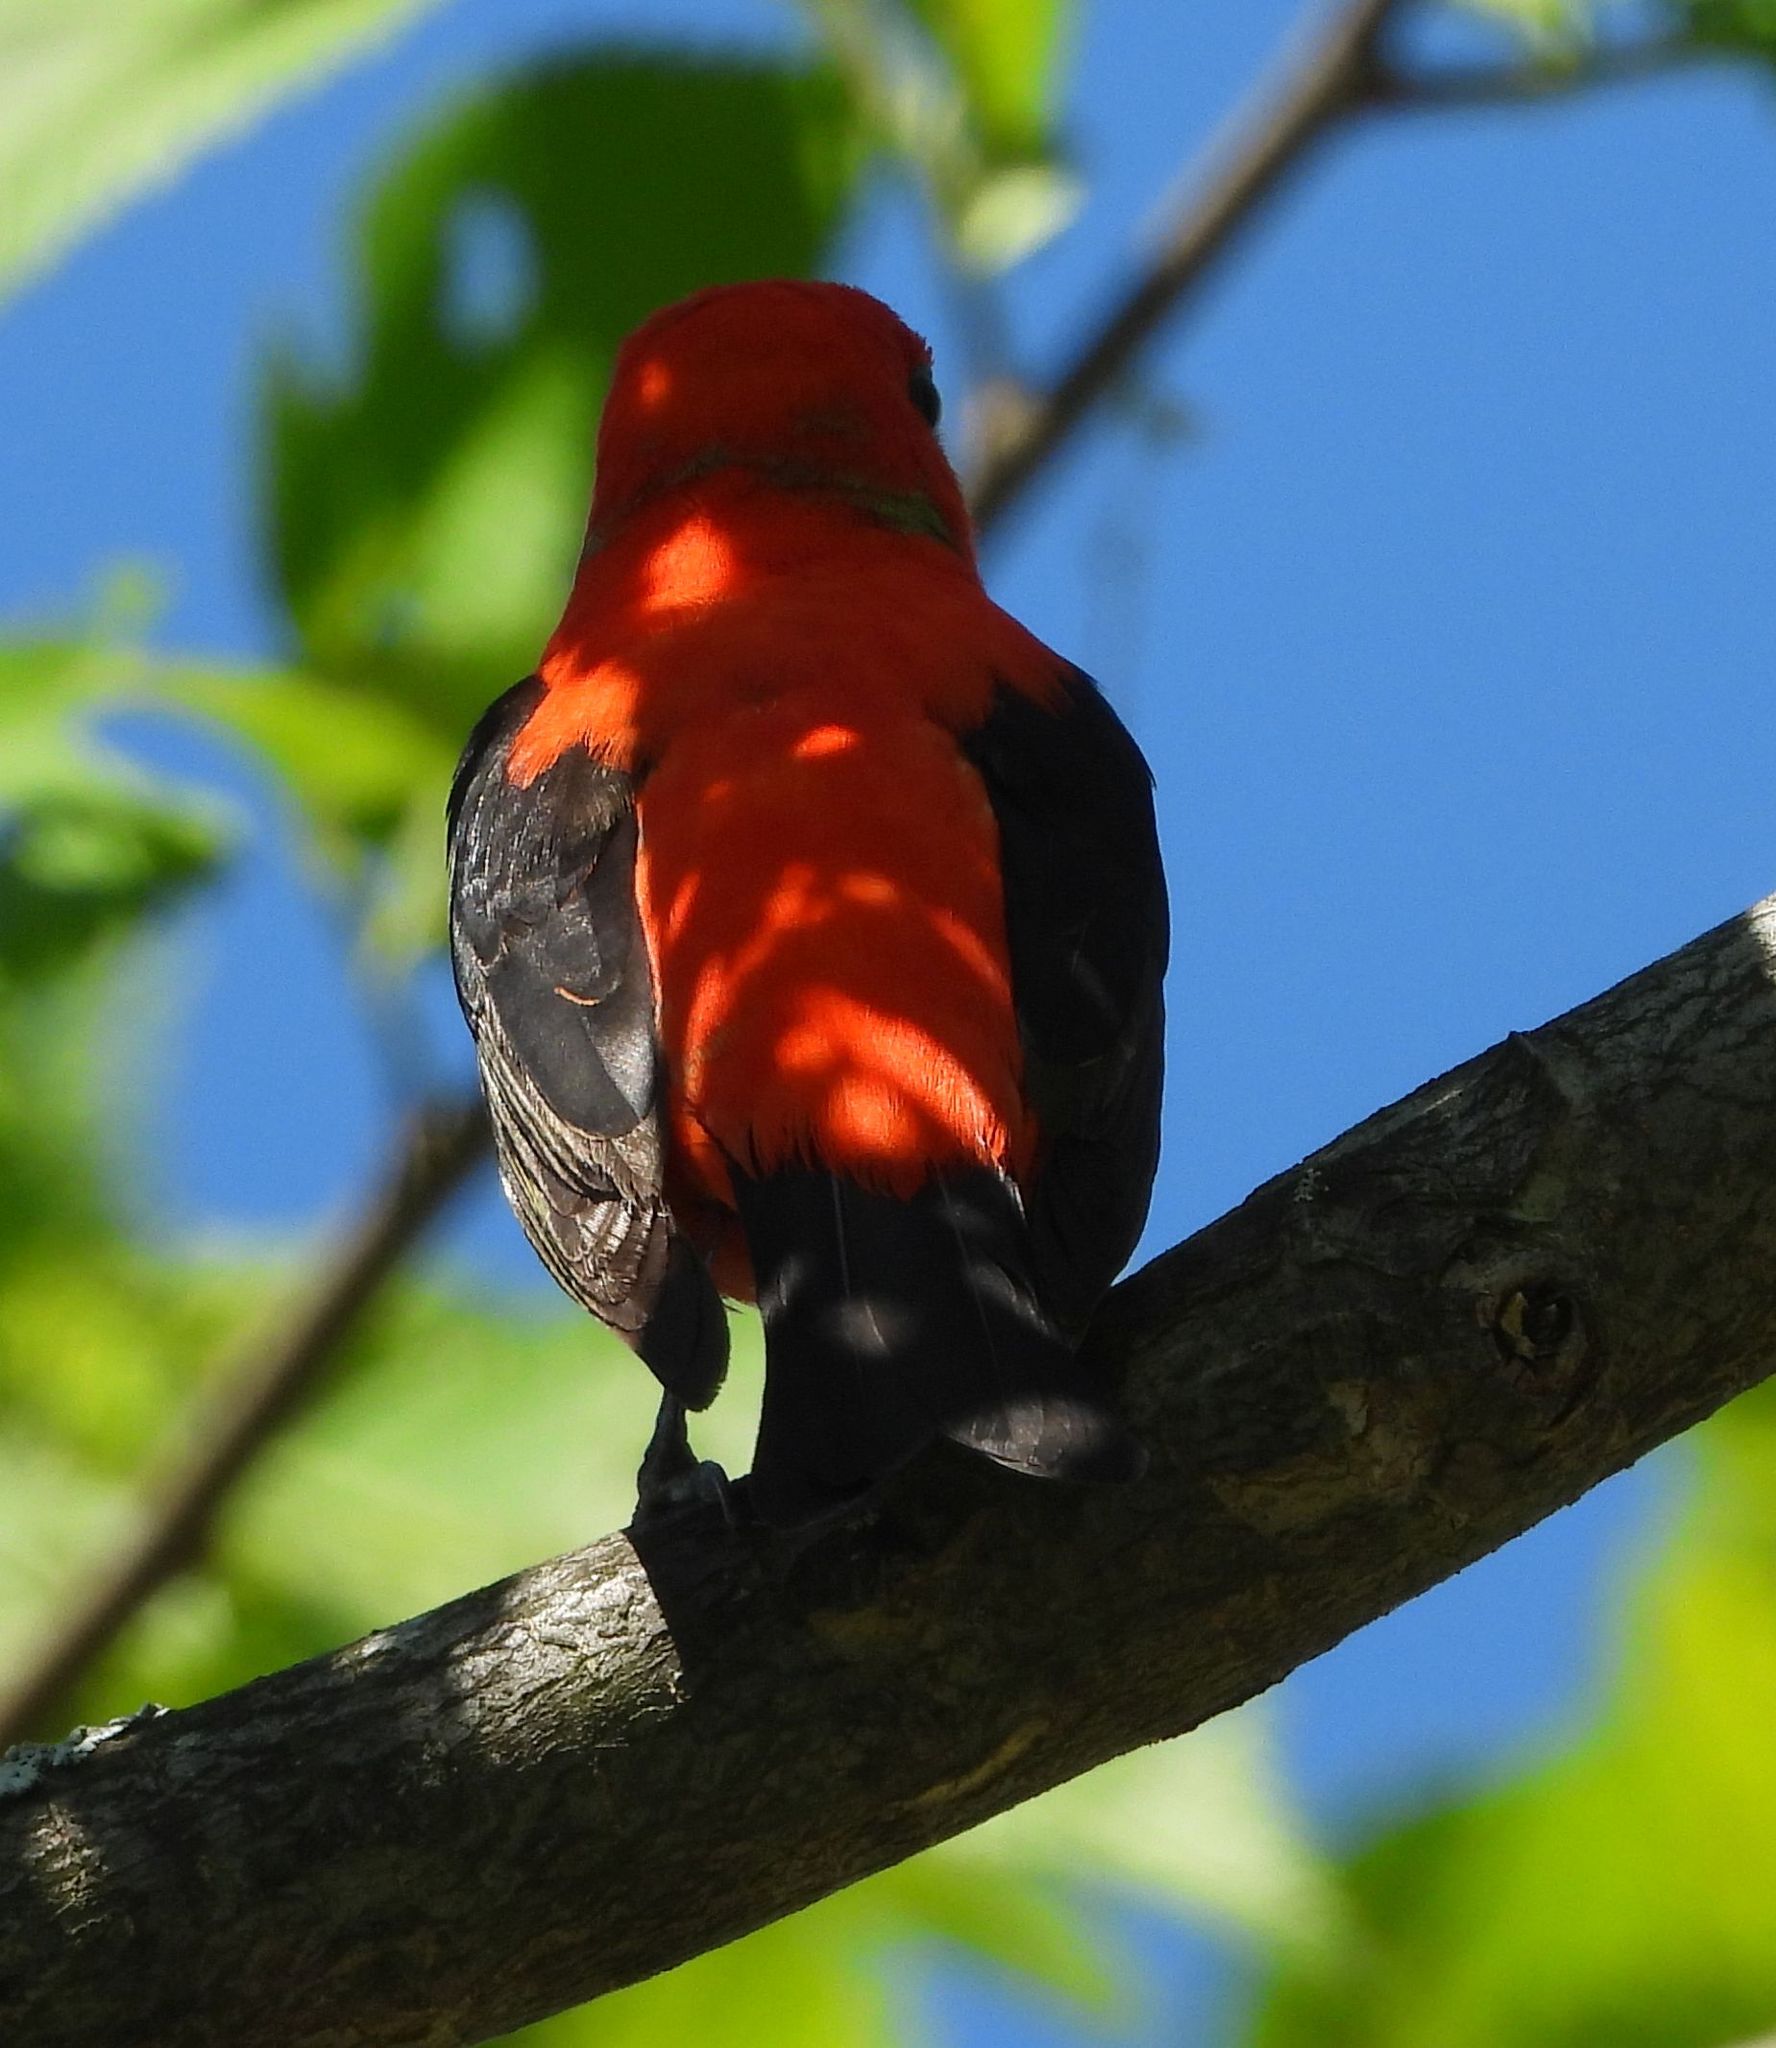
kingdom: Animalia
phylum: Chordata
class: Aves
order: Passeriformes
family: Cardinalidae
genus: Piranga
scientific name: Piranga olivacea
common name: Scarlet tanager
